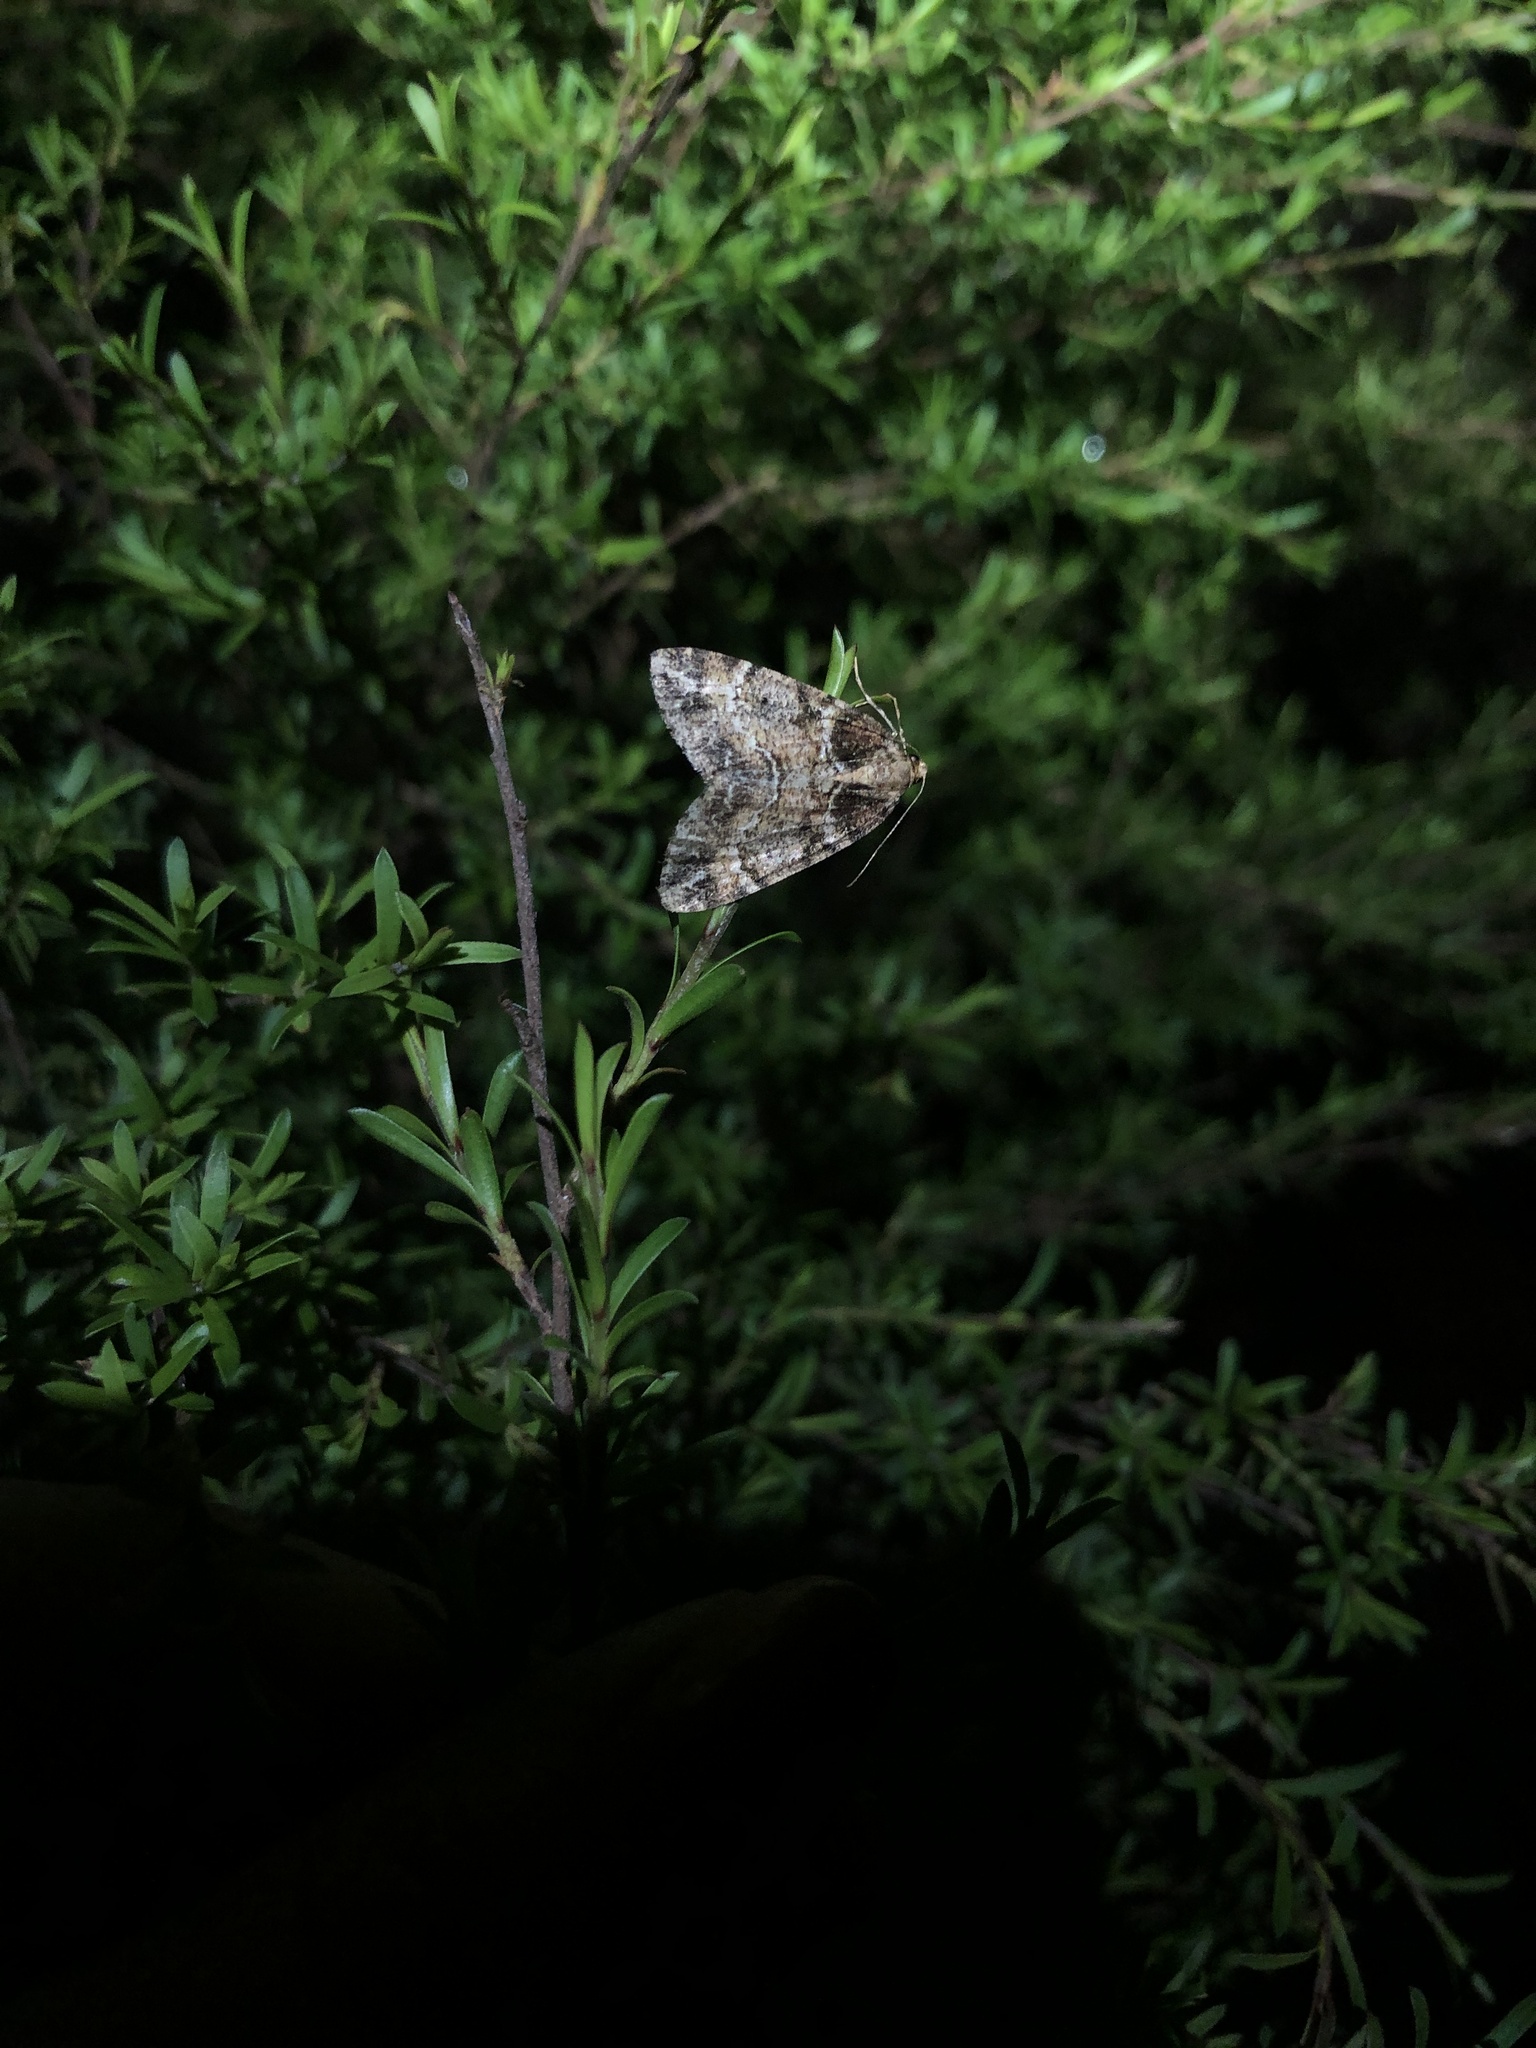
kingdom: Animalia
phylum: Arthropoda
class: Insecta
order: Lepidoptera
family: Geometridae
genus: Pseudocoremia
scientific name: Pseudocoremia productata
